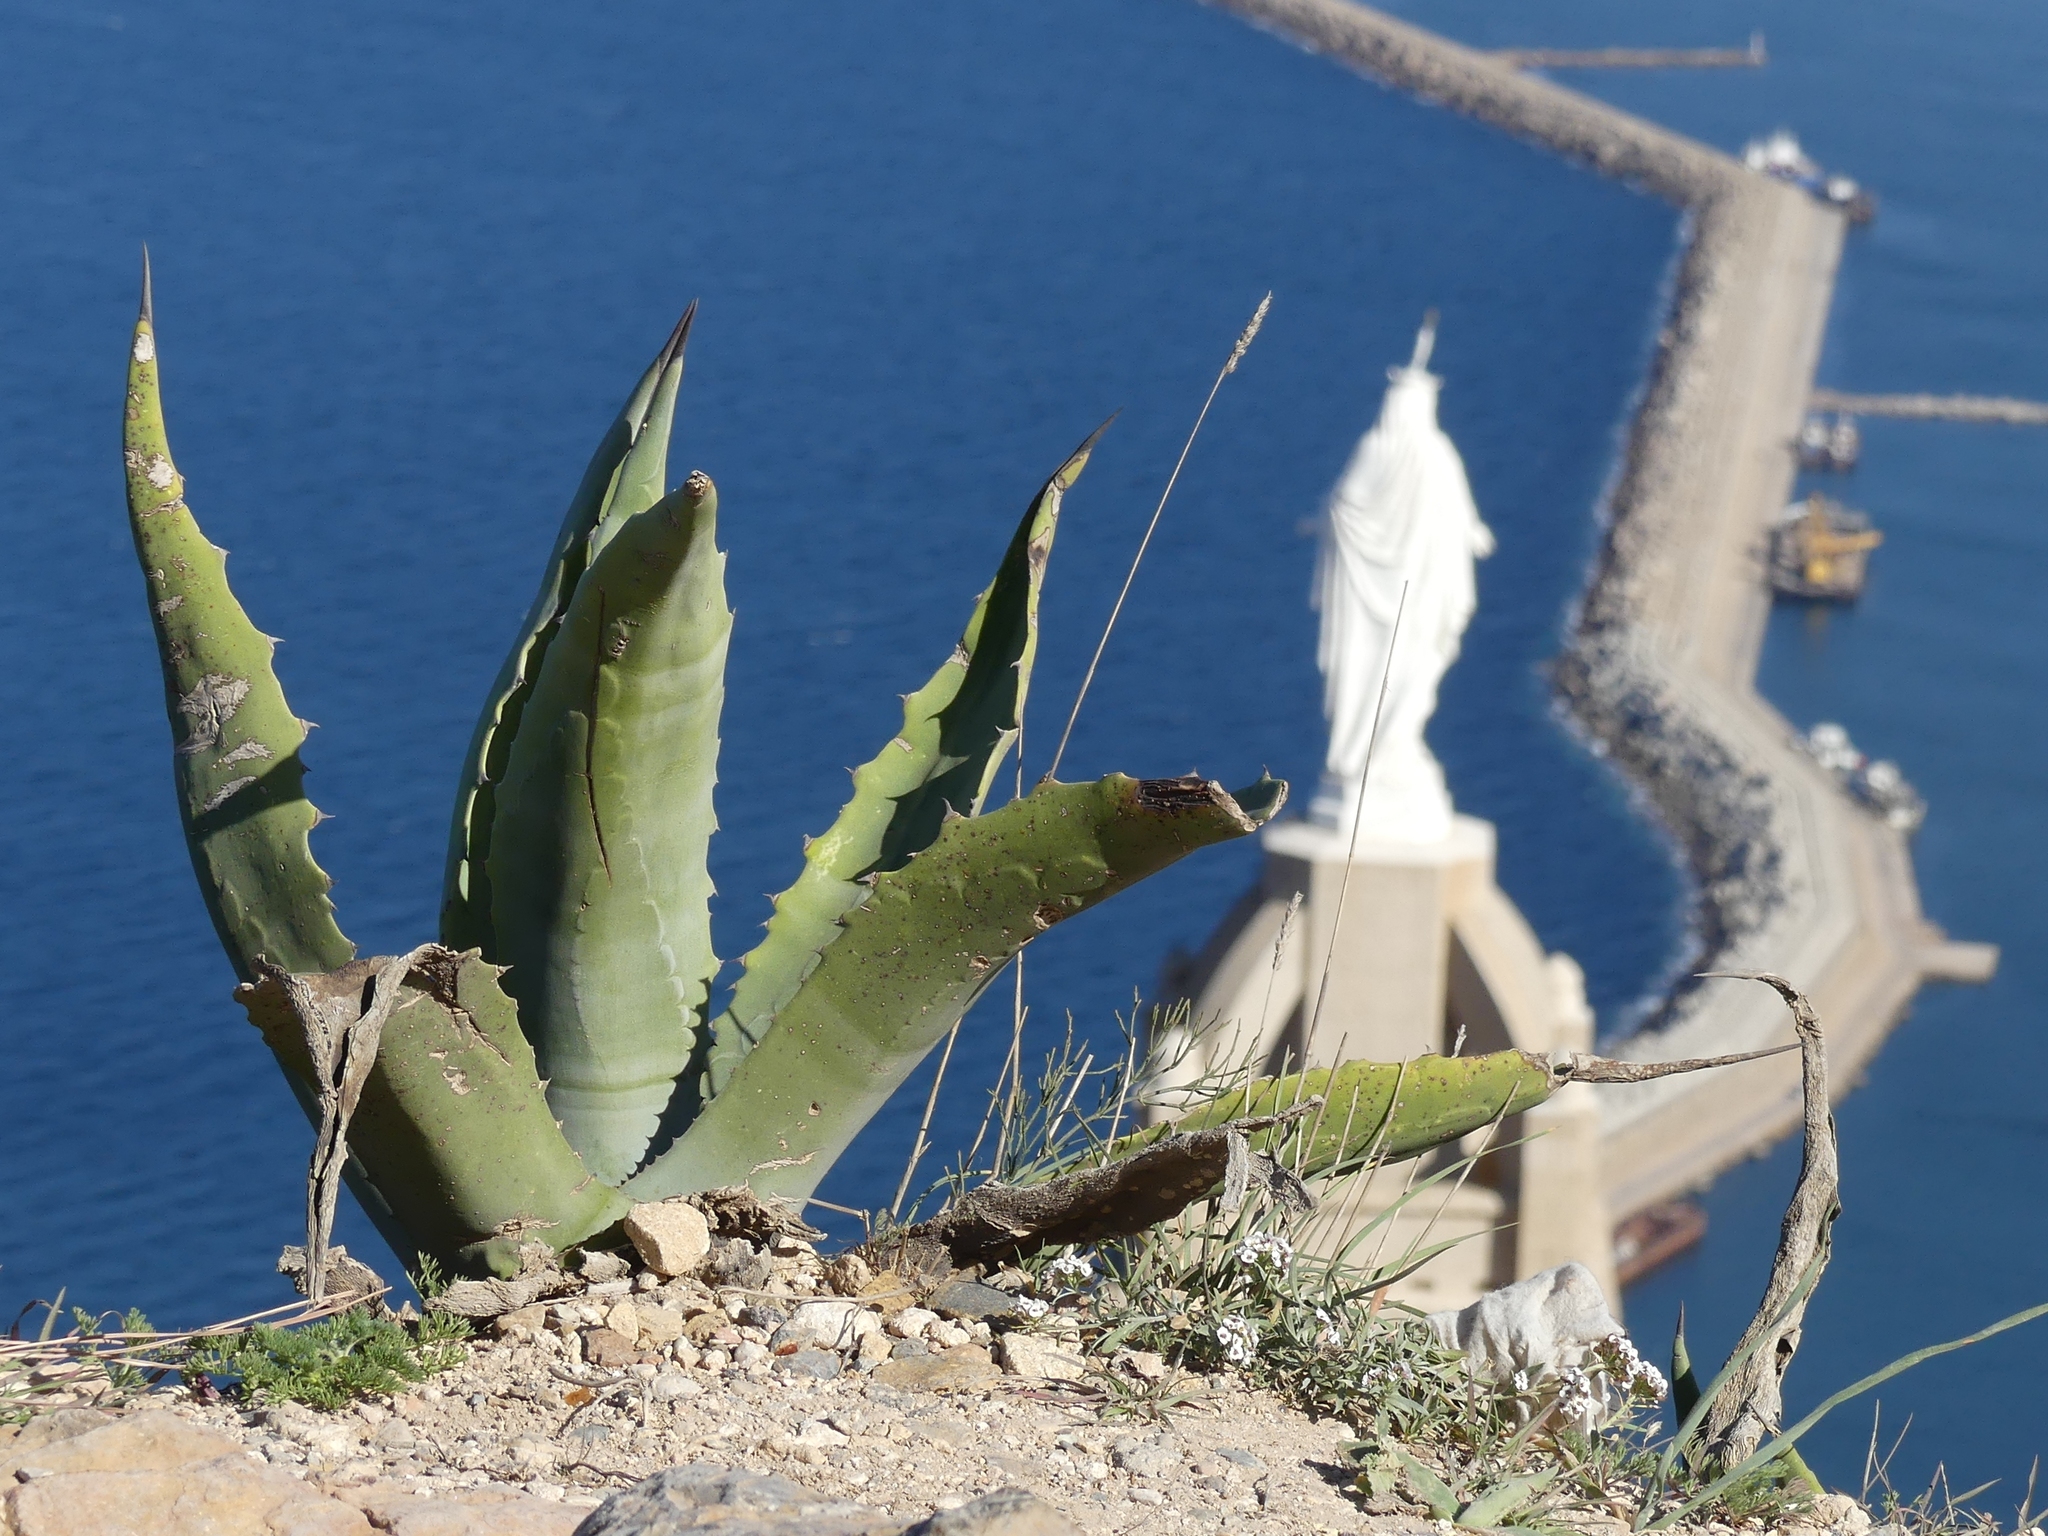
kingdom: Plantae
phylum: Tracheophyta
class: Liliopsida
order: Asparagales
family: Asparagaceae
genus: Agave
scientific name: Agave americana
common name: Centuryplant
